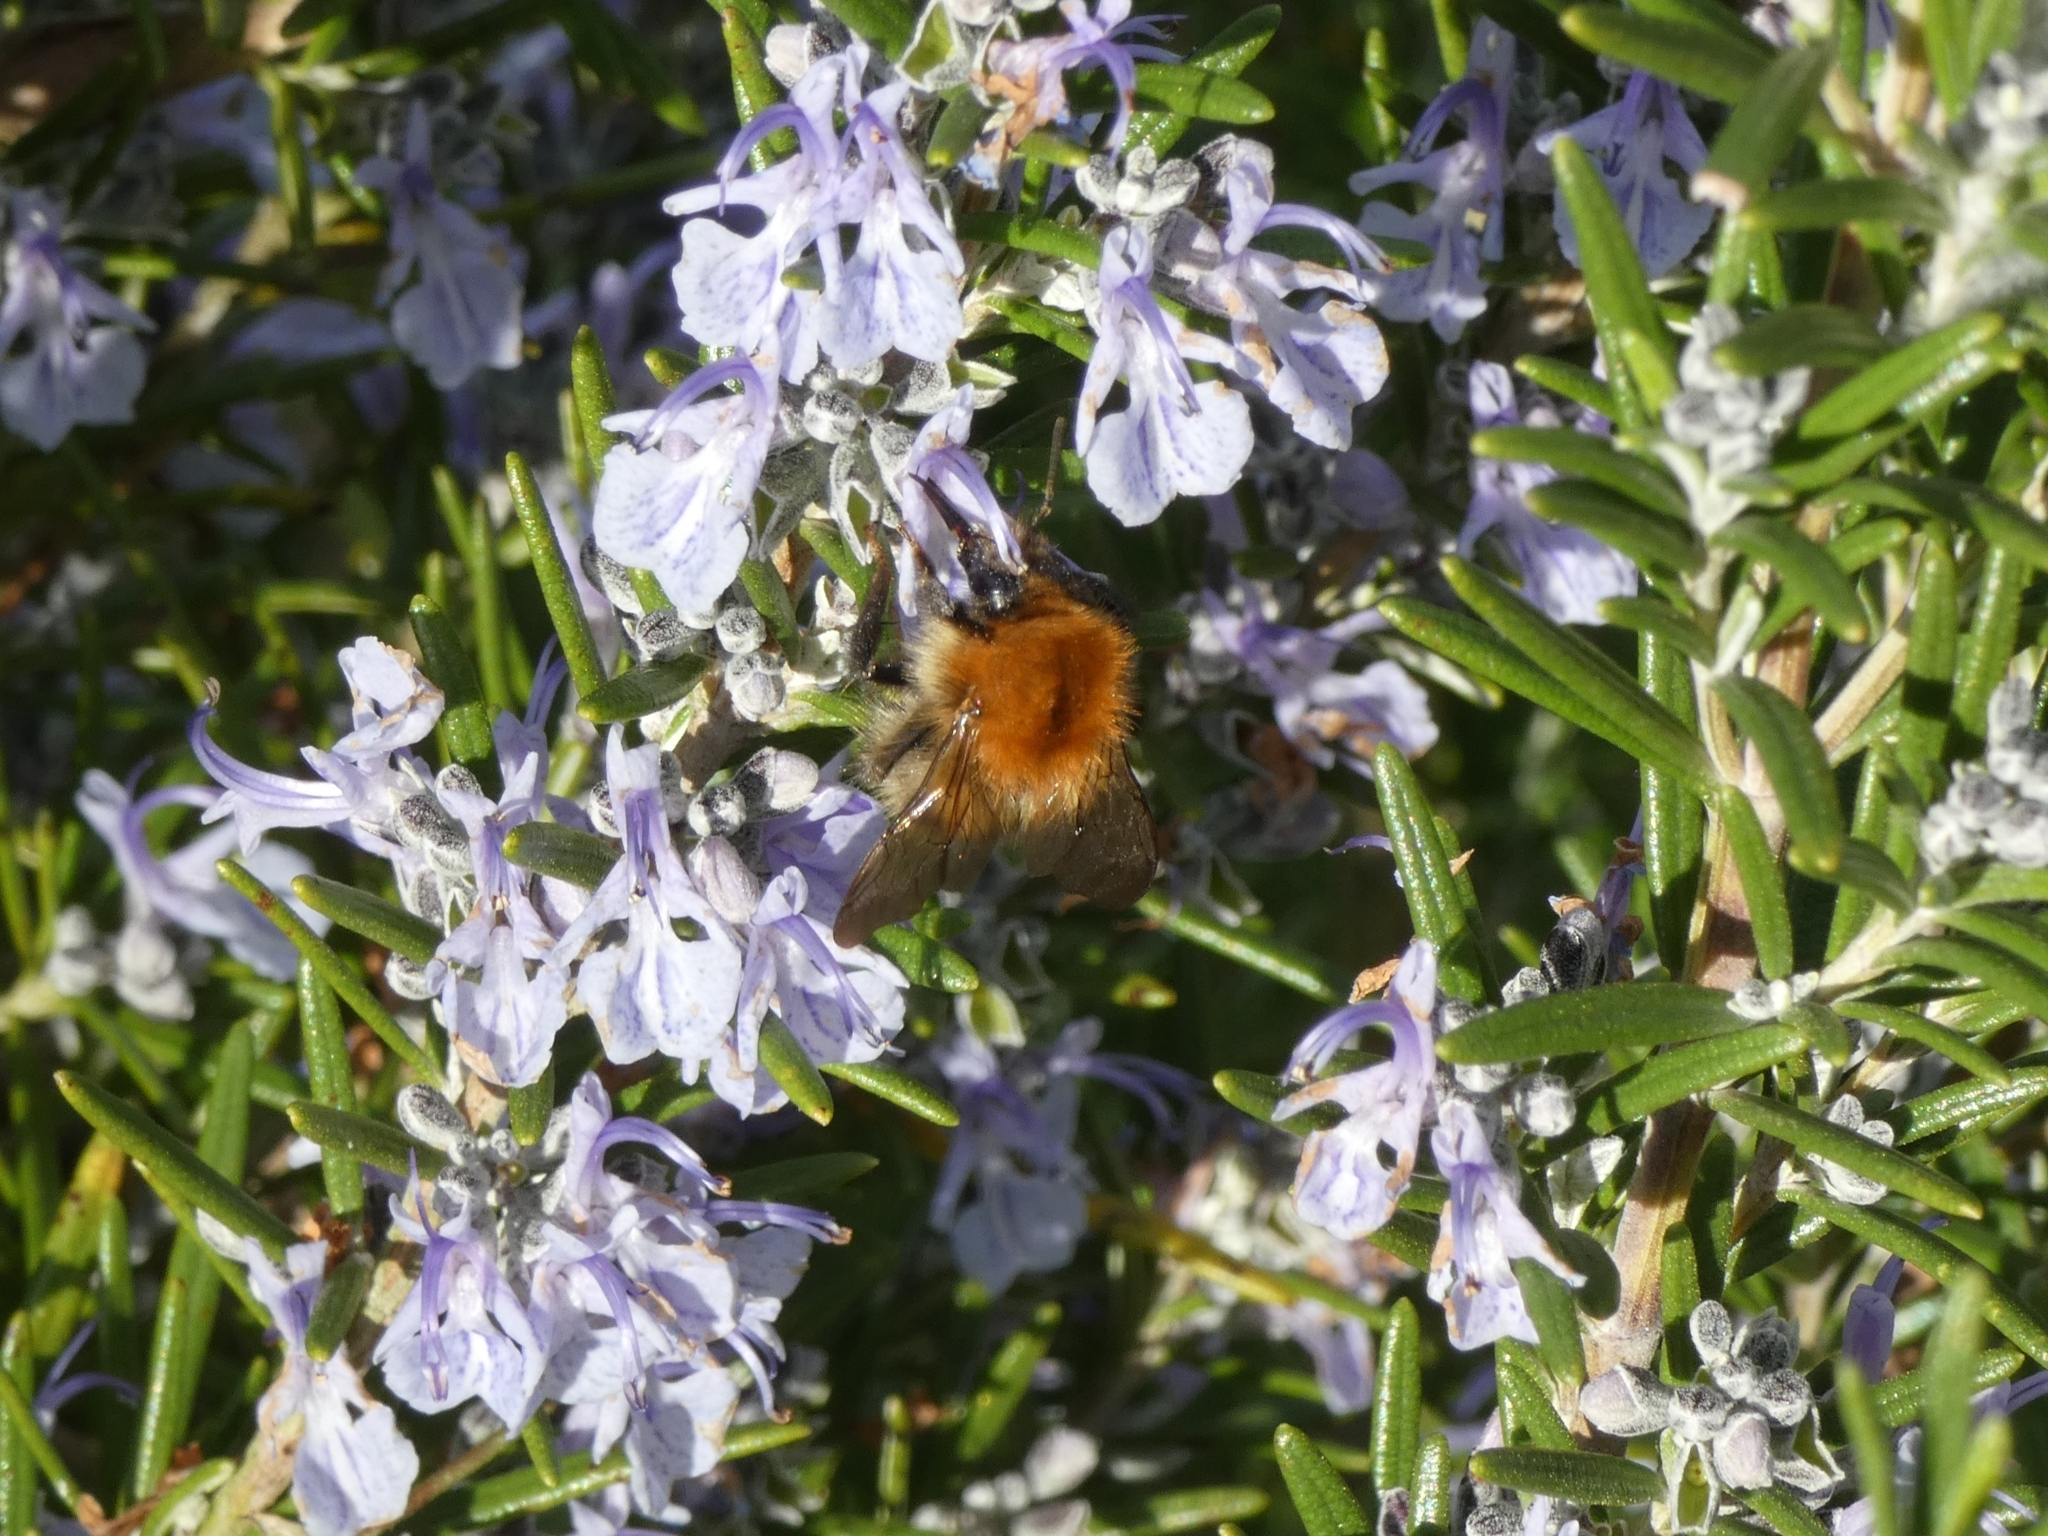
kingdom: Animalia
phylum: Arthropoda
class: Insecta
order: Hymenoptera
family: Apidae
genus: Bombus
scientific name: Bombus pascuorum
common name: Common carder bee
